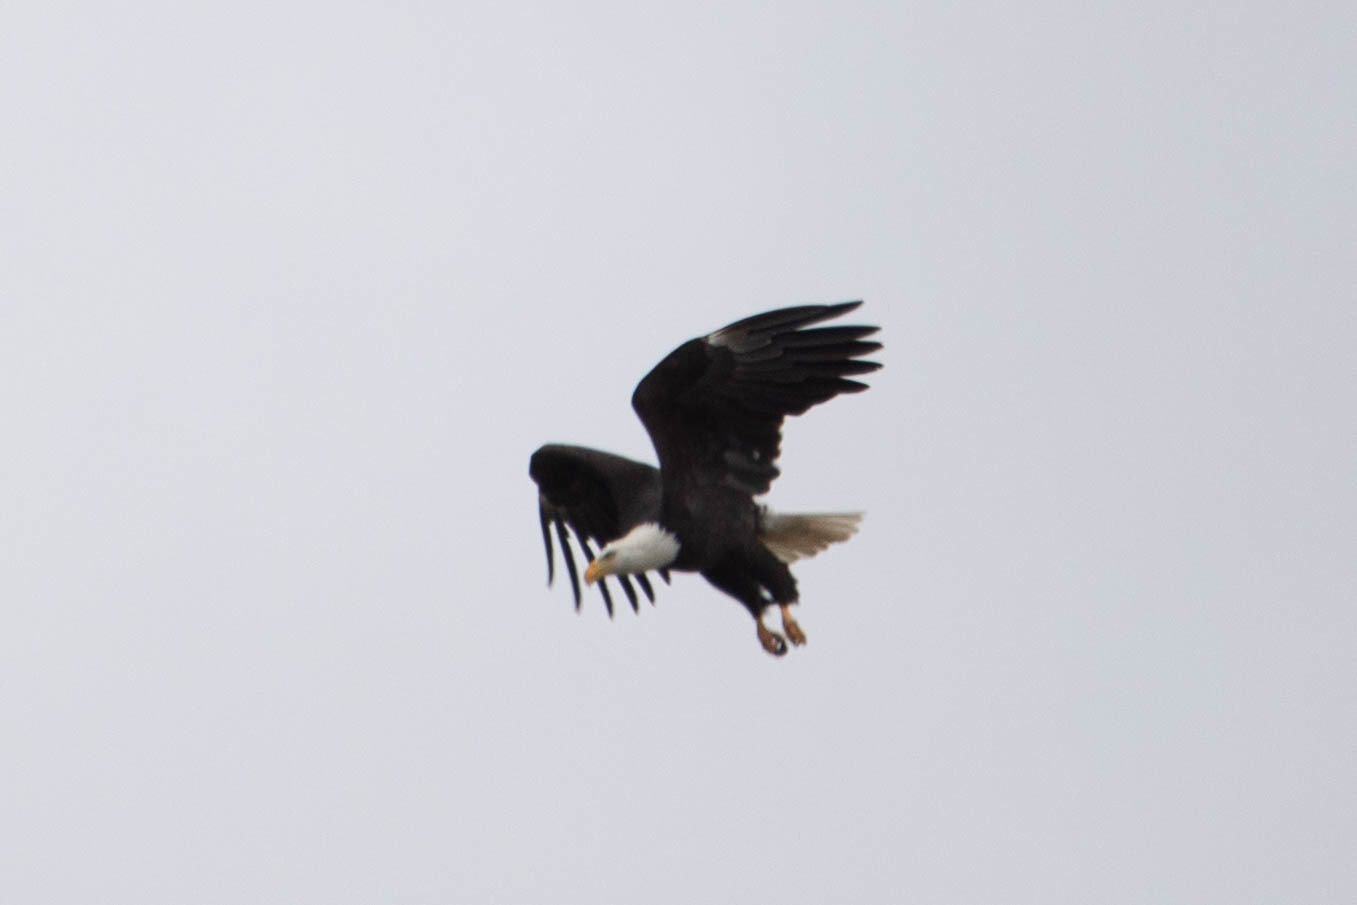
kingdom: Animalia
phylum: Chordata
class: Aves
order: Accipitriformes
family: Accipitridae
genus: Haliaeetus
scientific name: Haliaeetus leucocephalus
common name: Bald eagle
